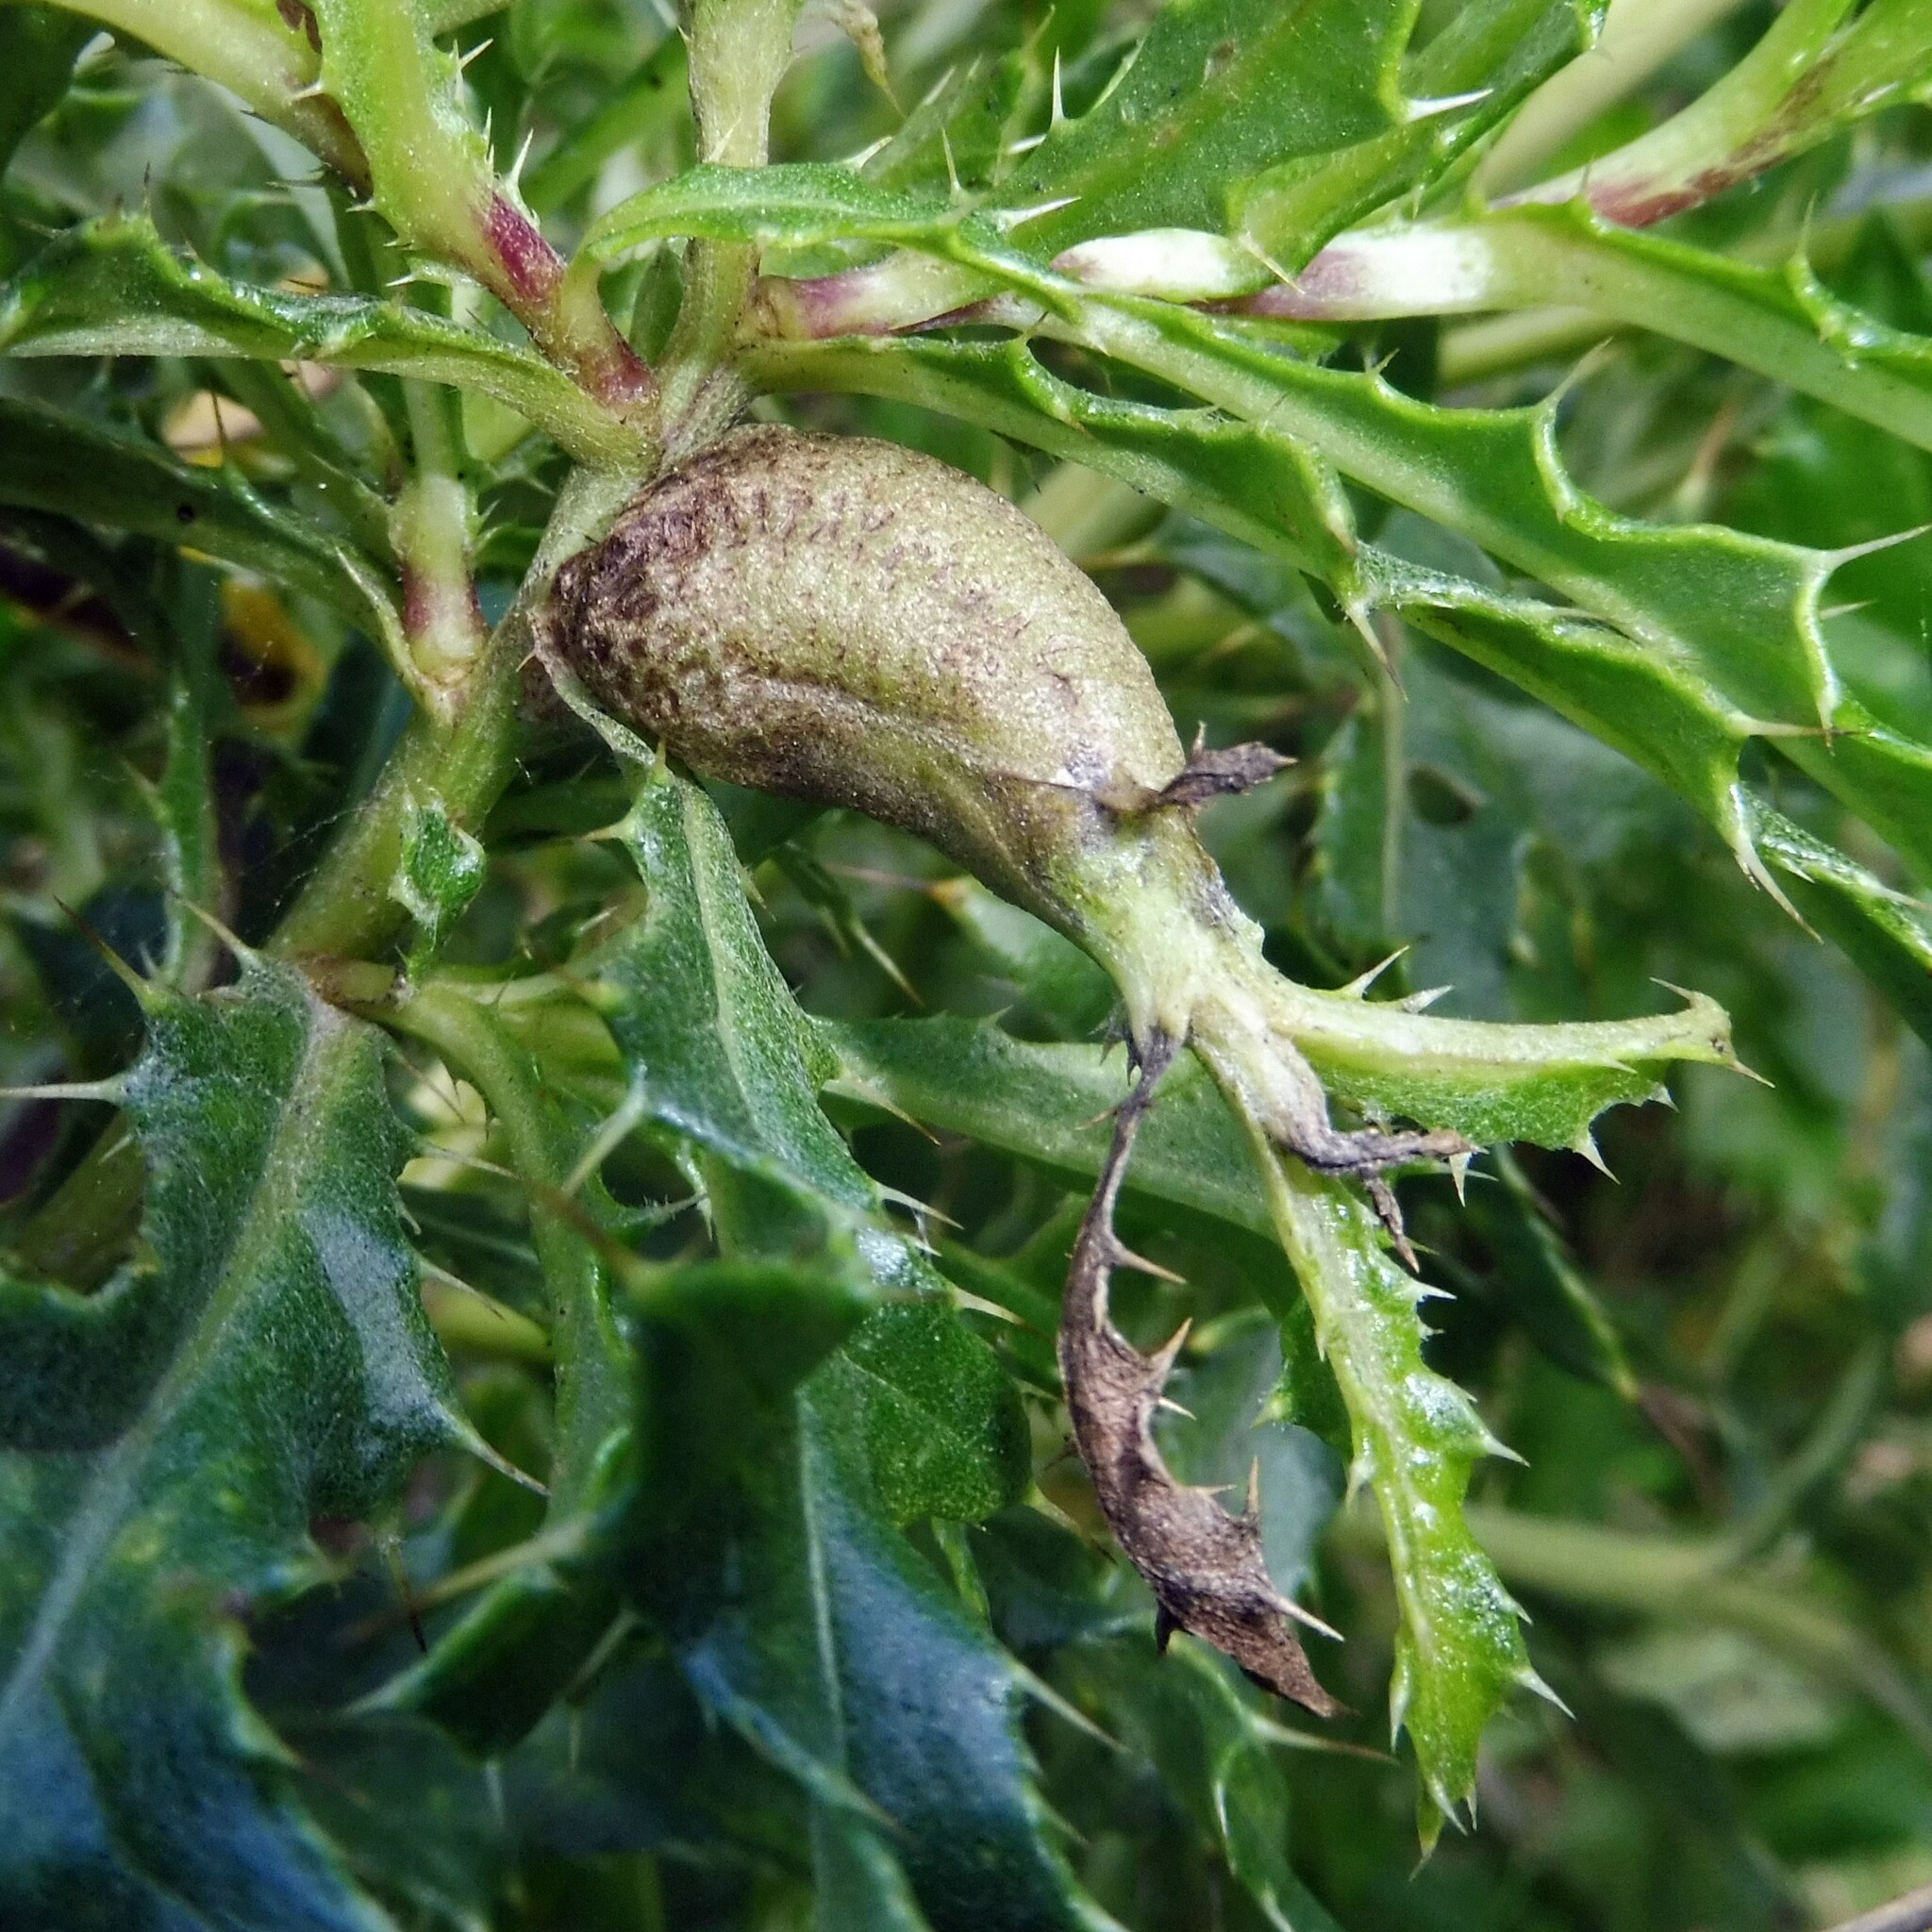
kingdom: Animalia
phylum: Arthropoda
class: Insecta
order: Diptera
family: Tephritidae
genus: Urophora
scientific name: Urophora cardui
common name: Fruit fly
